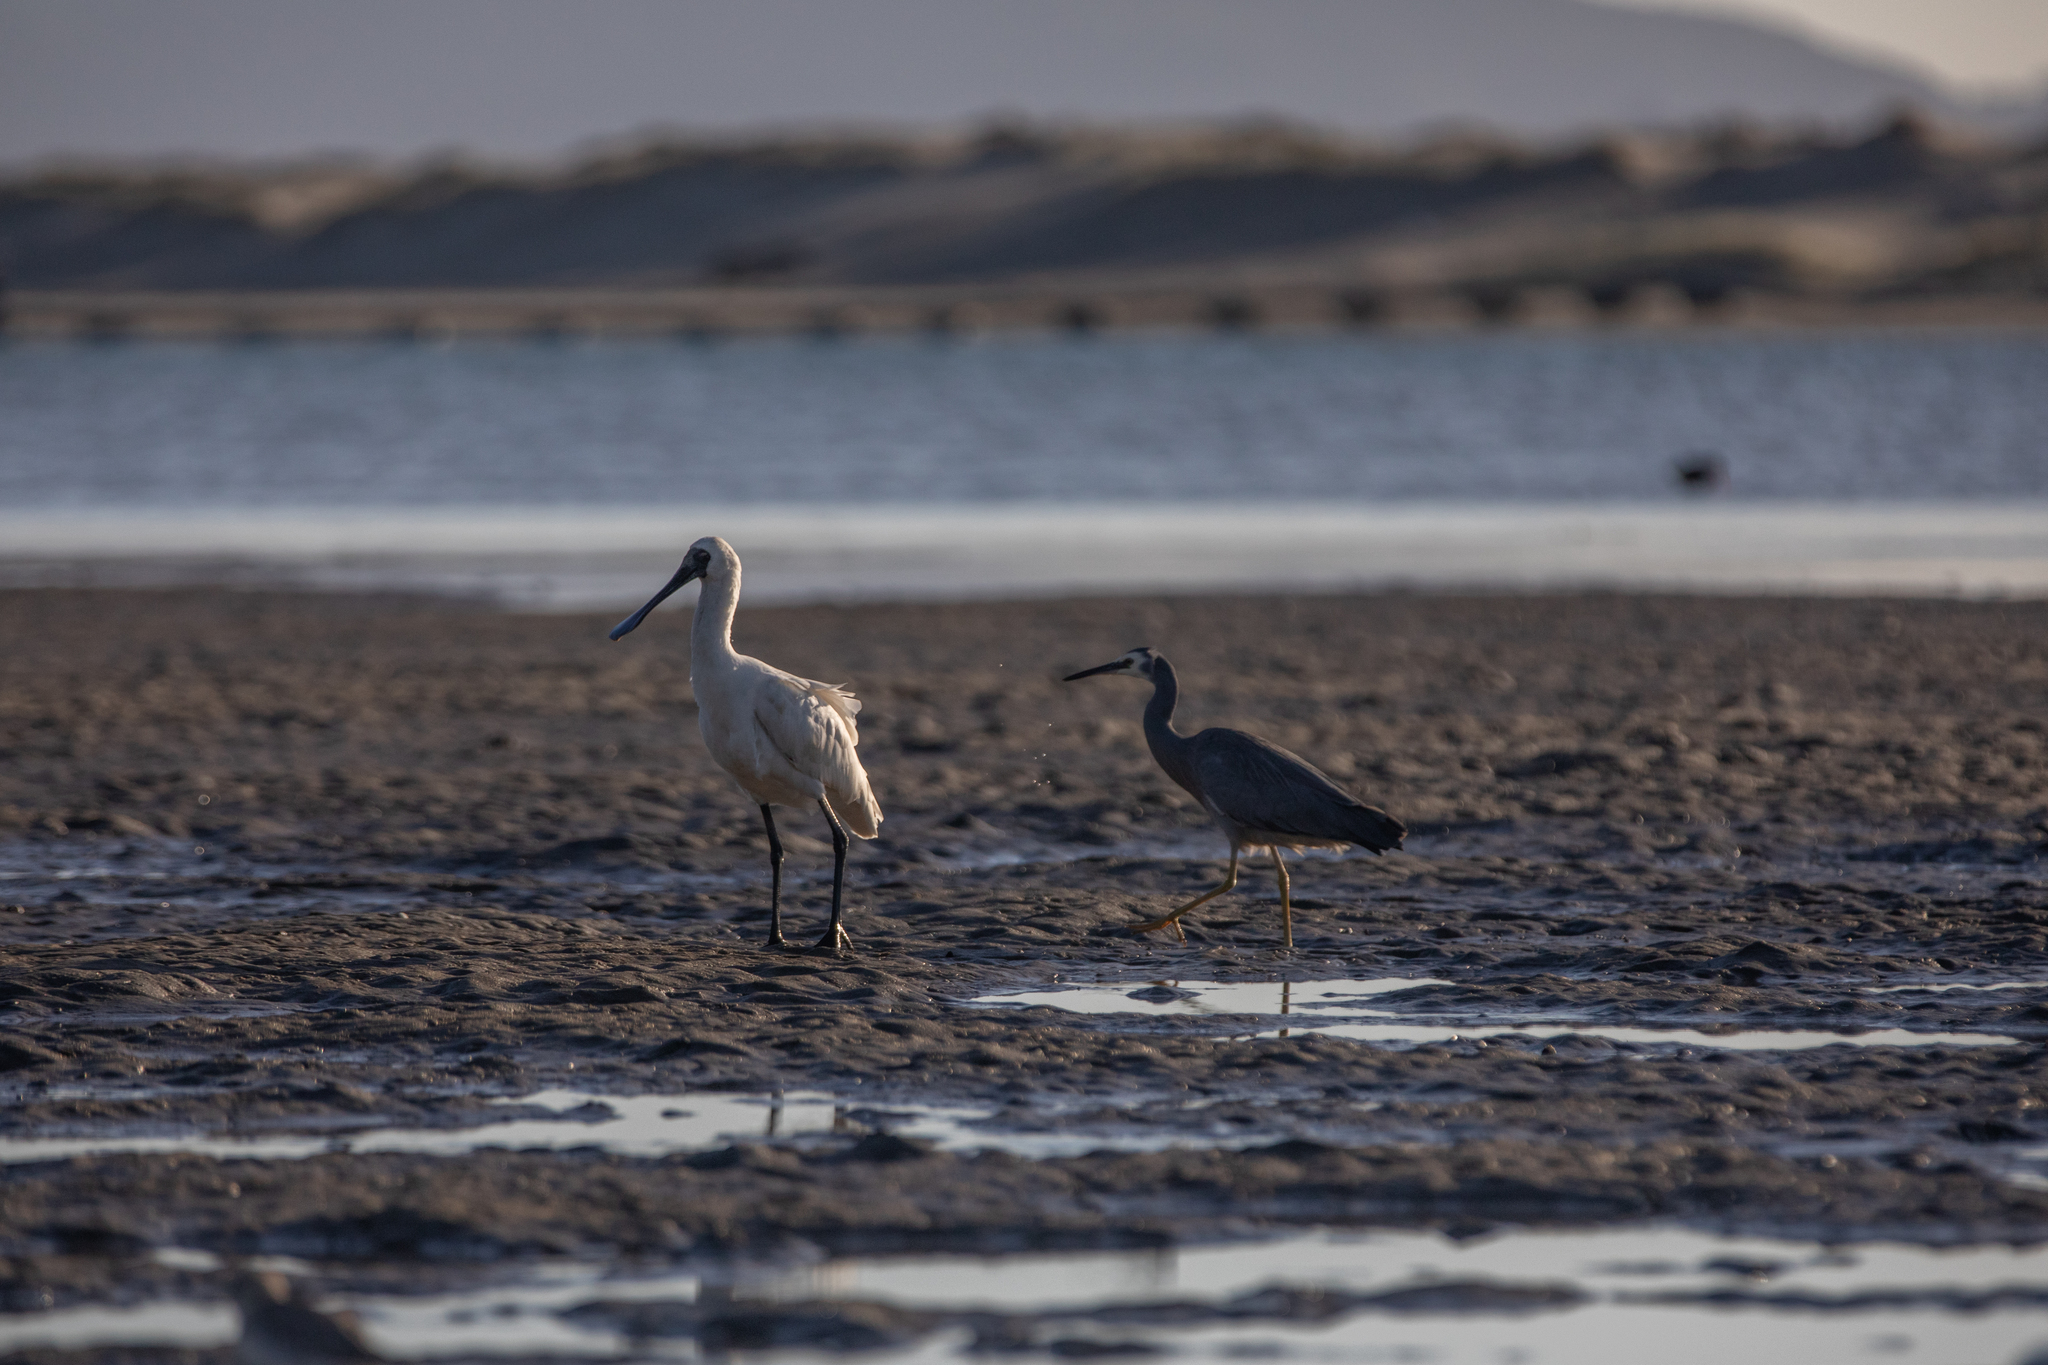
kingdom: Animalia
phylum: Chordata
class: Aves
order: Pelecaniformes
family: Threskiornithidae
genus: Platalea
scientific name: Platalea regia
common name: Royal spoonbill
